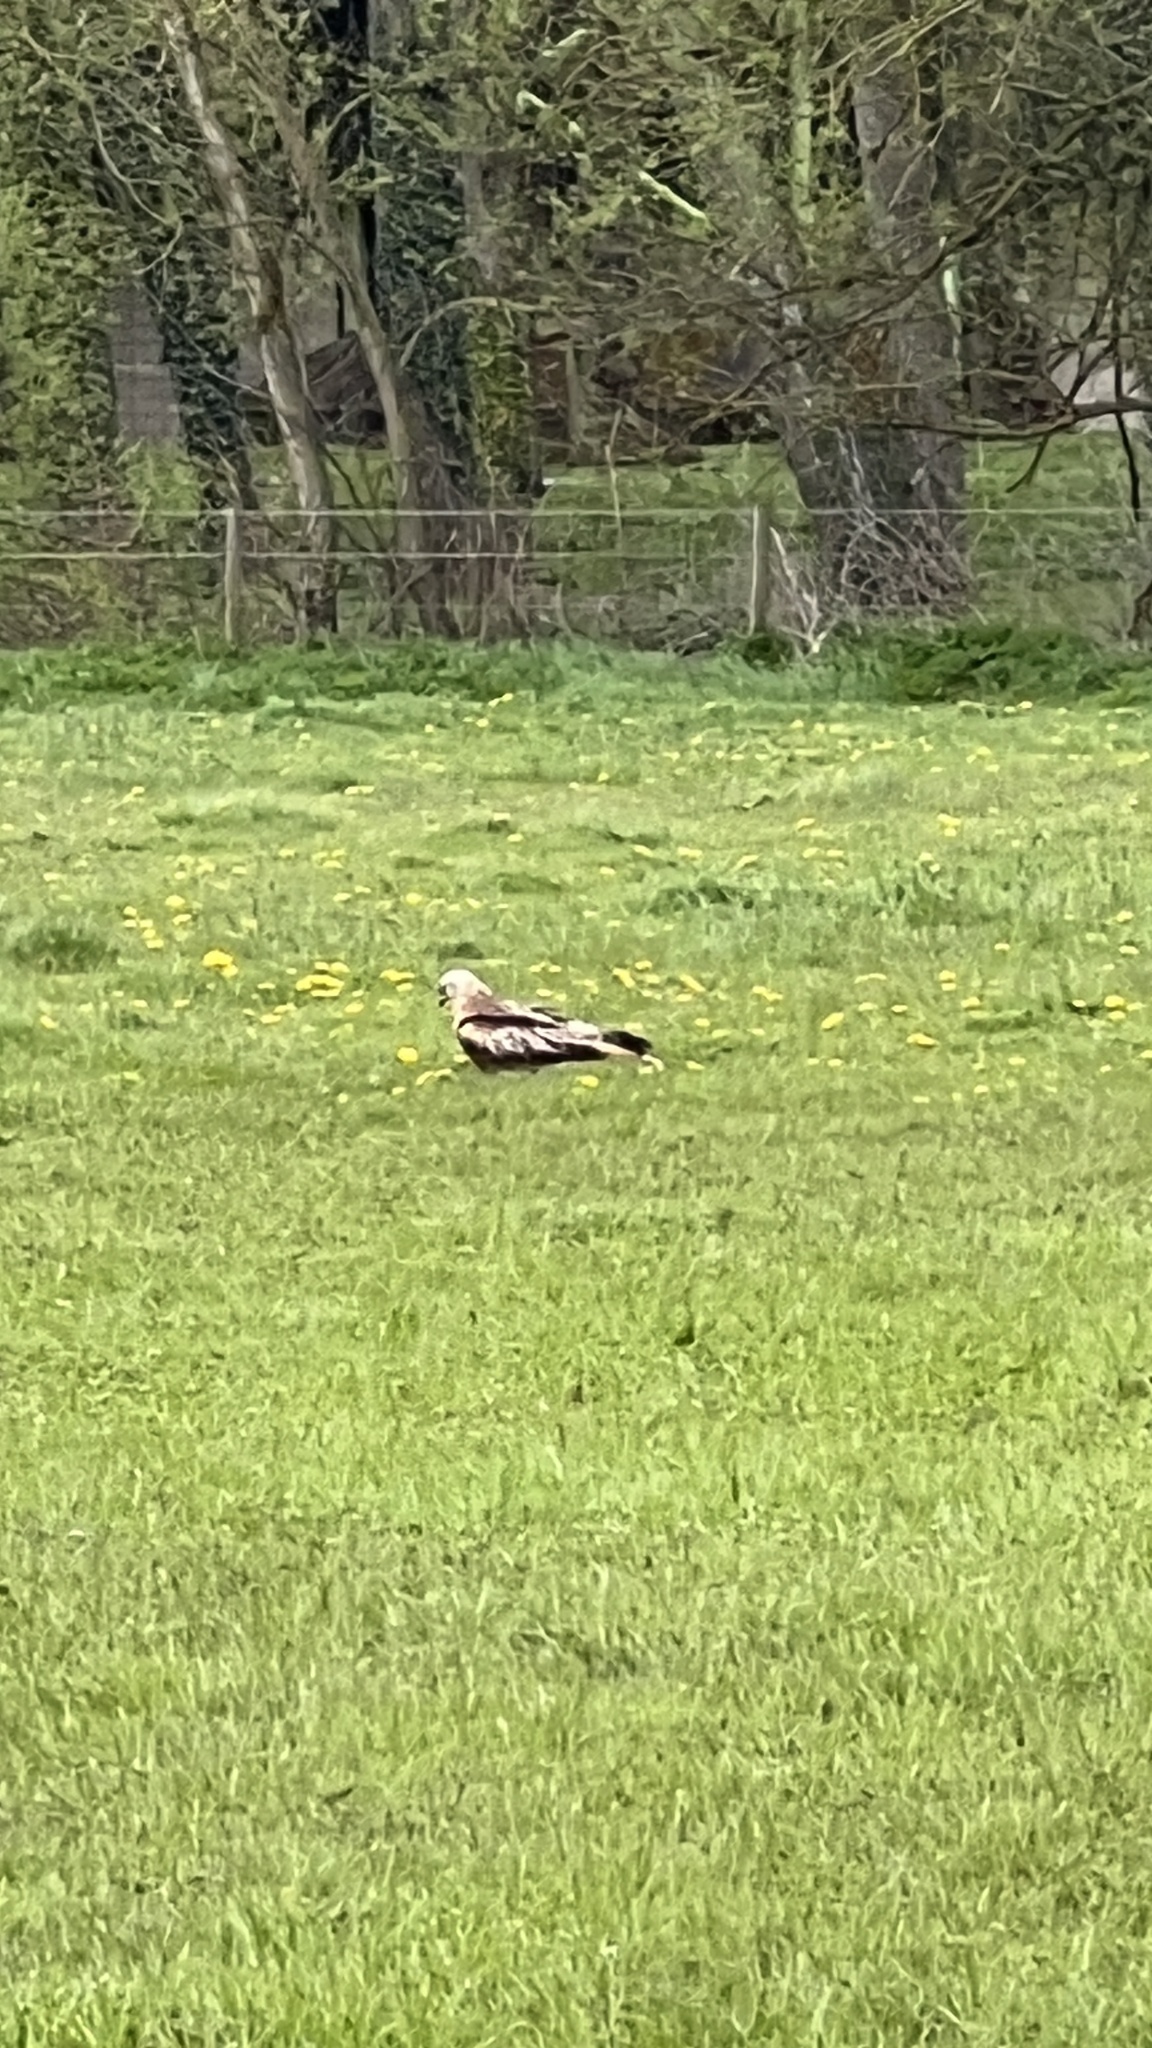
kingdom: Animalia
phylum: Chordata
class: Aves
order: Accipitriformes
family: Accipitridae
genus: Milvus
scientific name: Milvus milvus
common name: Red kite
